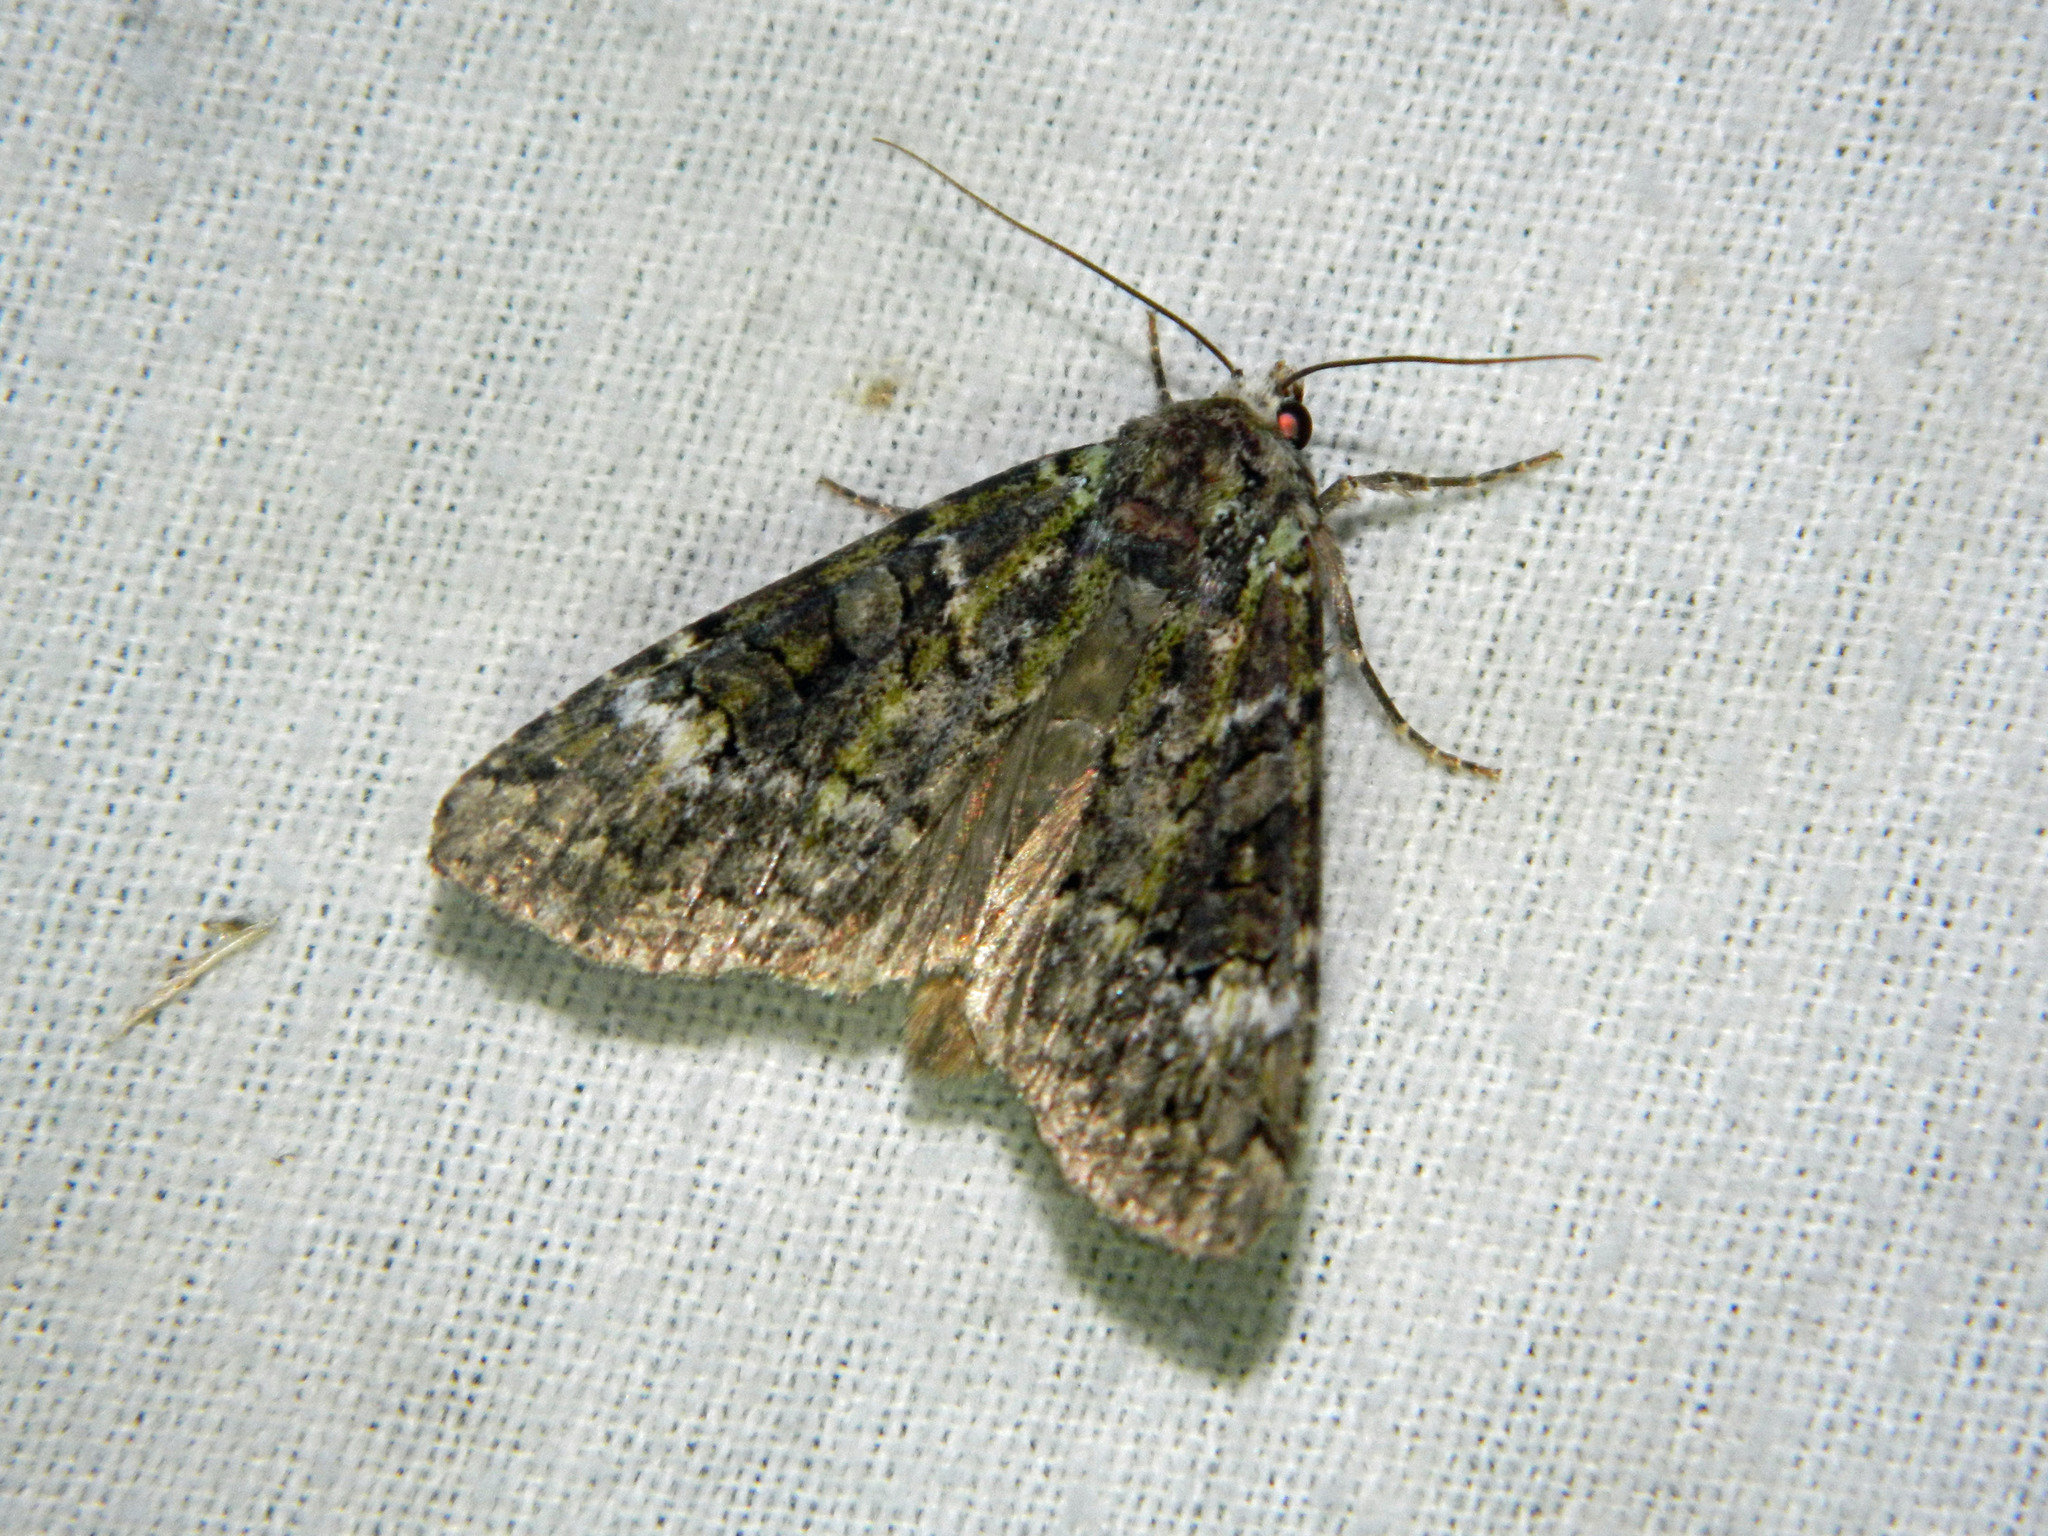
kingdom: Animalia
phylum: Arthropoda
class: Insecta
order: Lepidoptera
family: Noctuidae
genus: Anaplectoides
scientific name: Anaplectoides prasina
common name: Green arches
